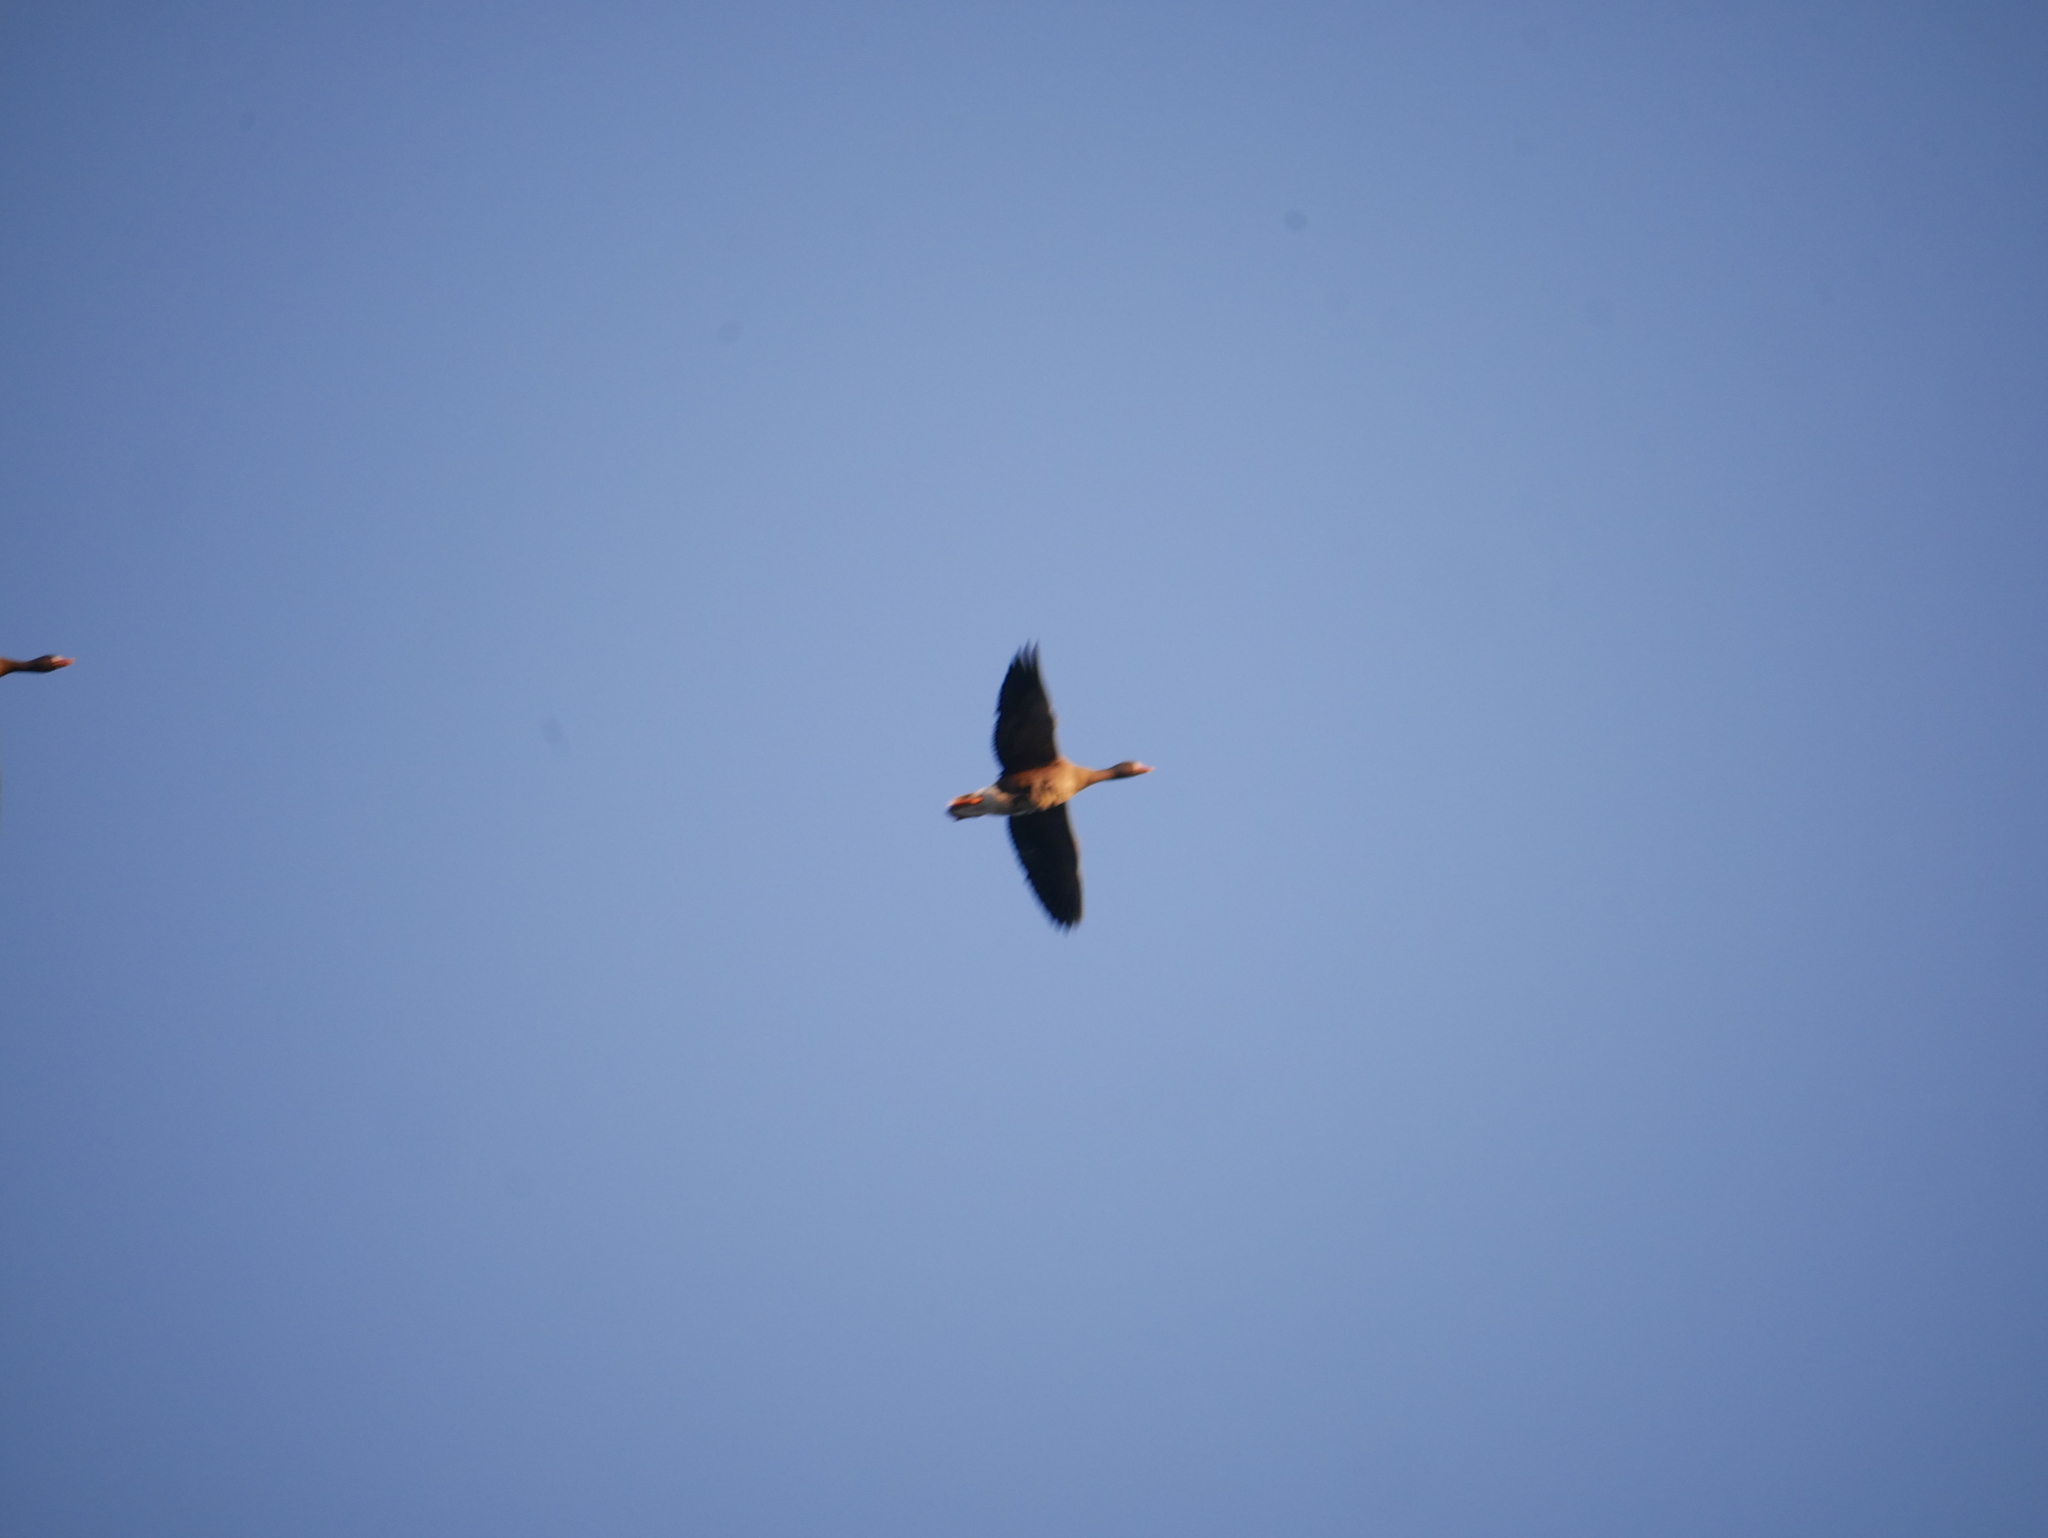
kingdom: Animalia
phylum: Chordata
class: Aves
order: Anseriformes
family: Anatidae
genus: Anser
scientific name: Anser albifrons
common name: Greater white-fronted goose
